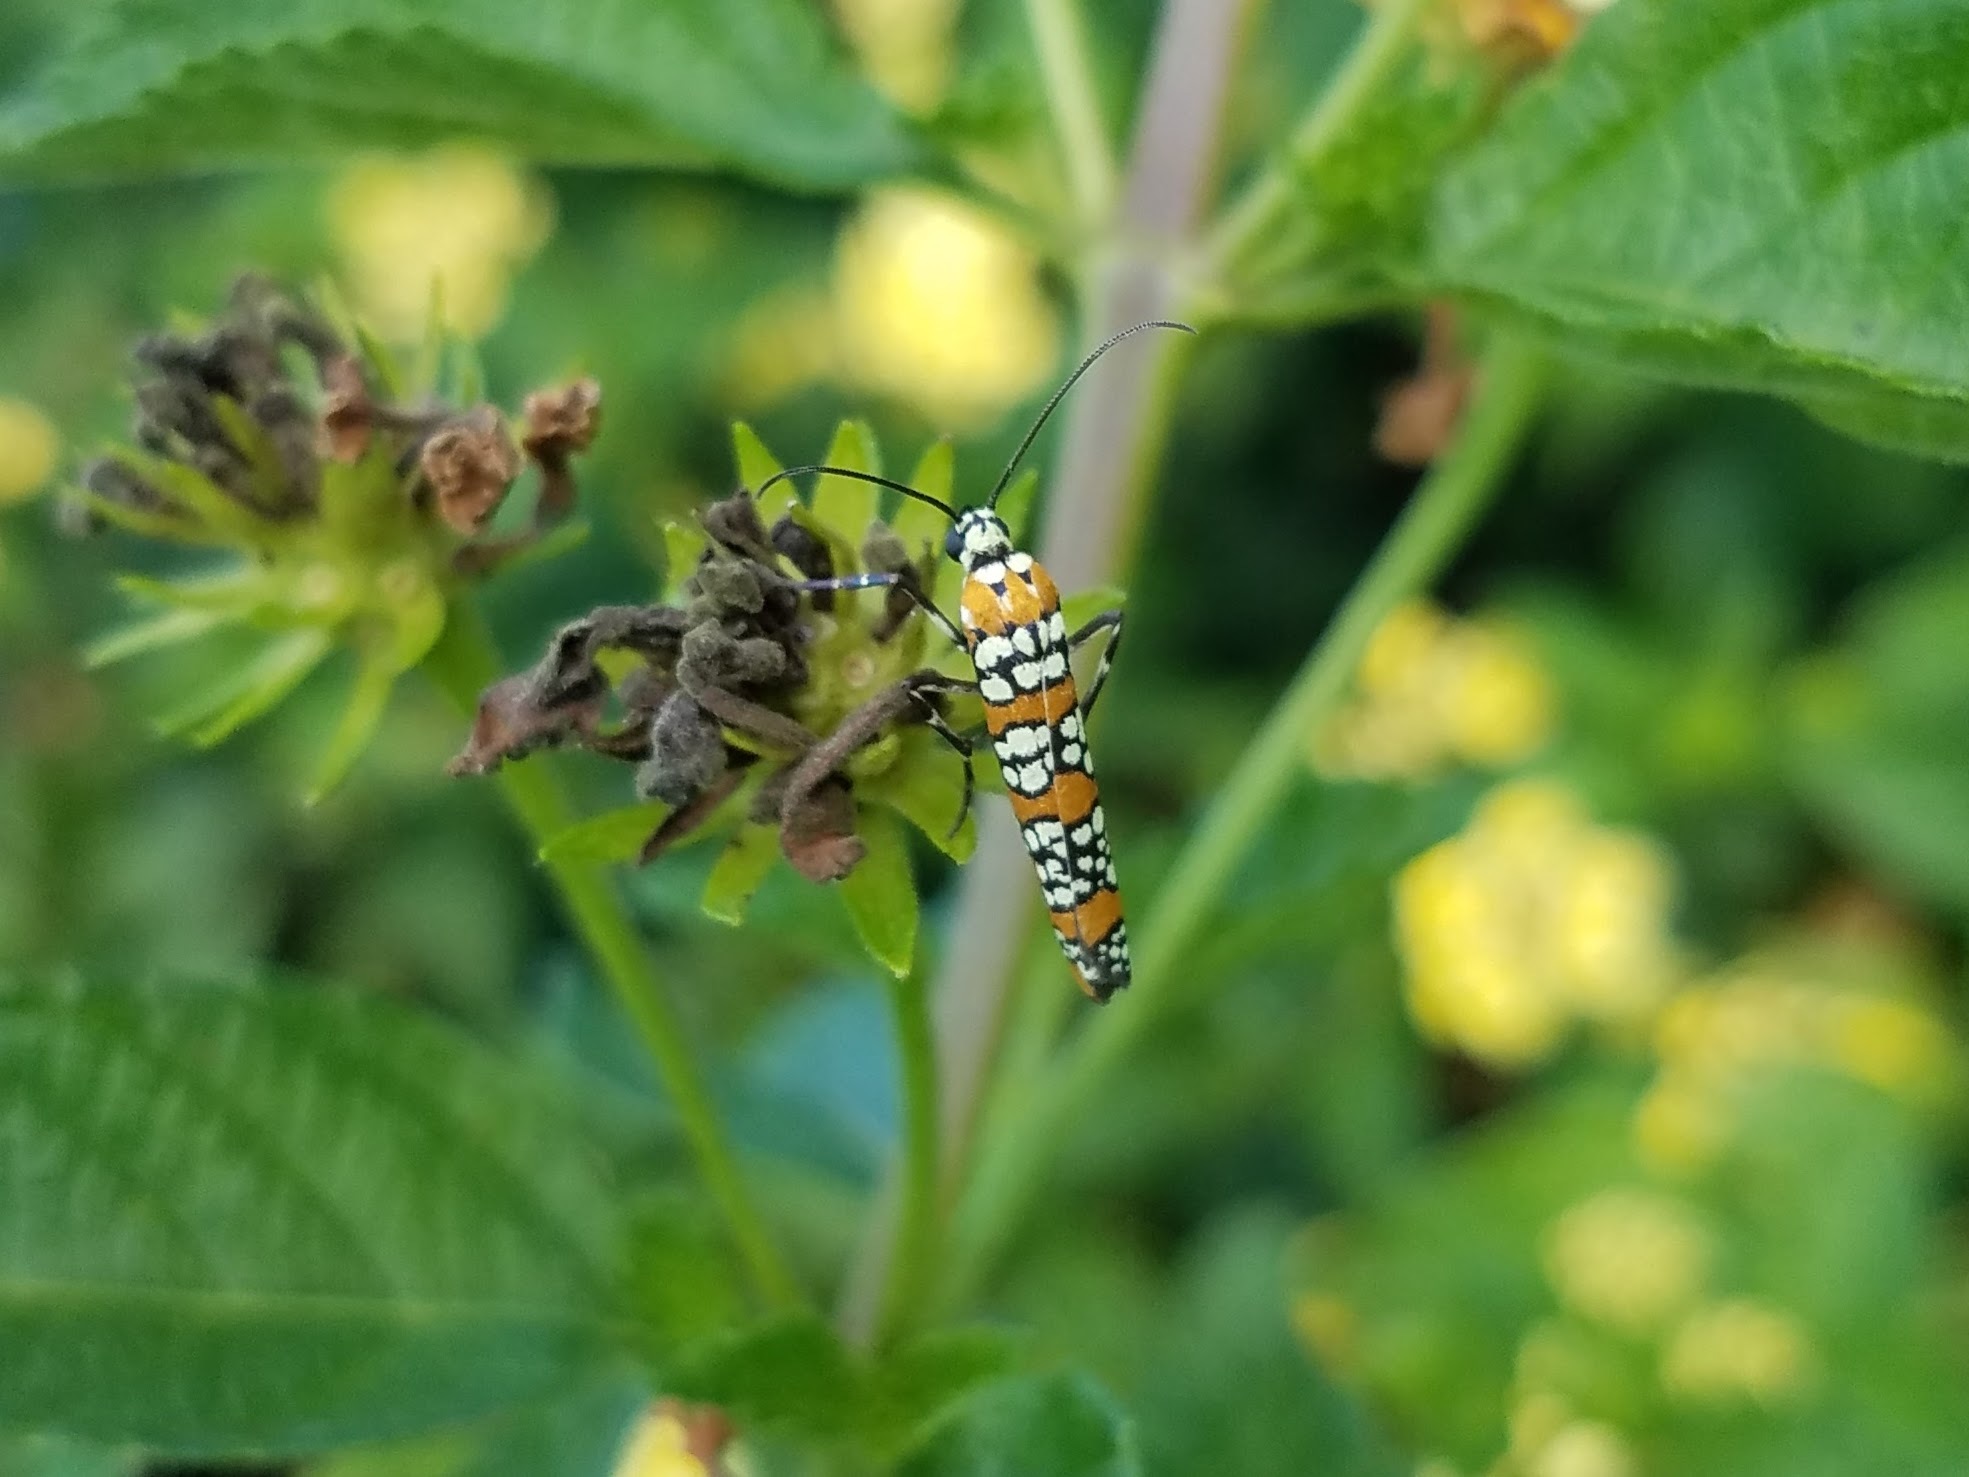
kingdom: Animalia
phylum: Arthropoda
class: Insecta
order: Lepidoptera
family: Attevidae
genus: Atteva
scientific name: Atteva punctella
